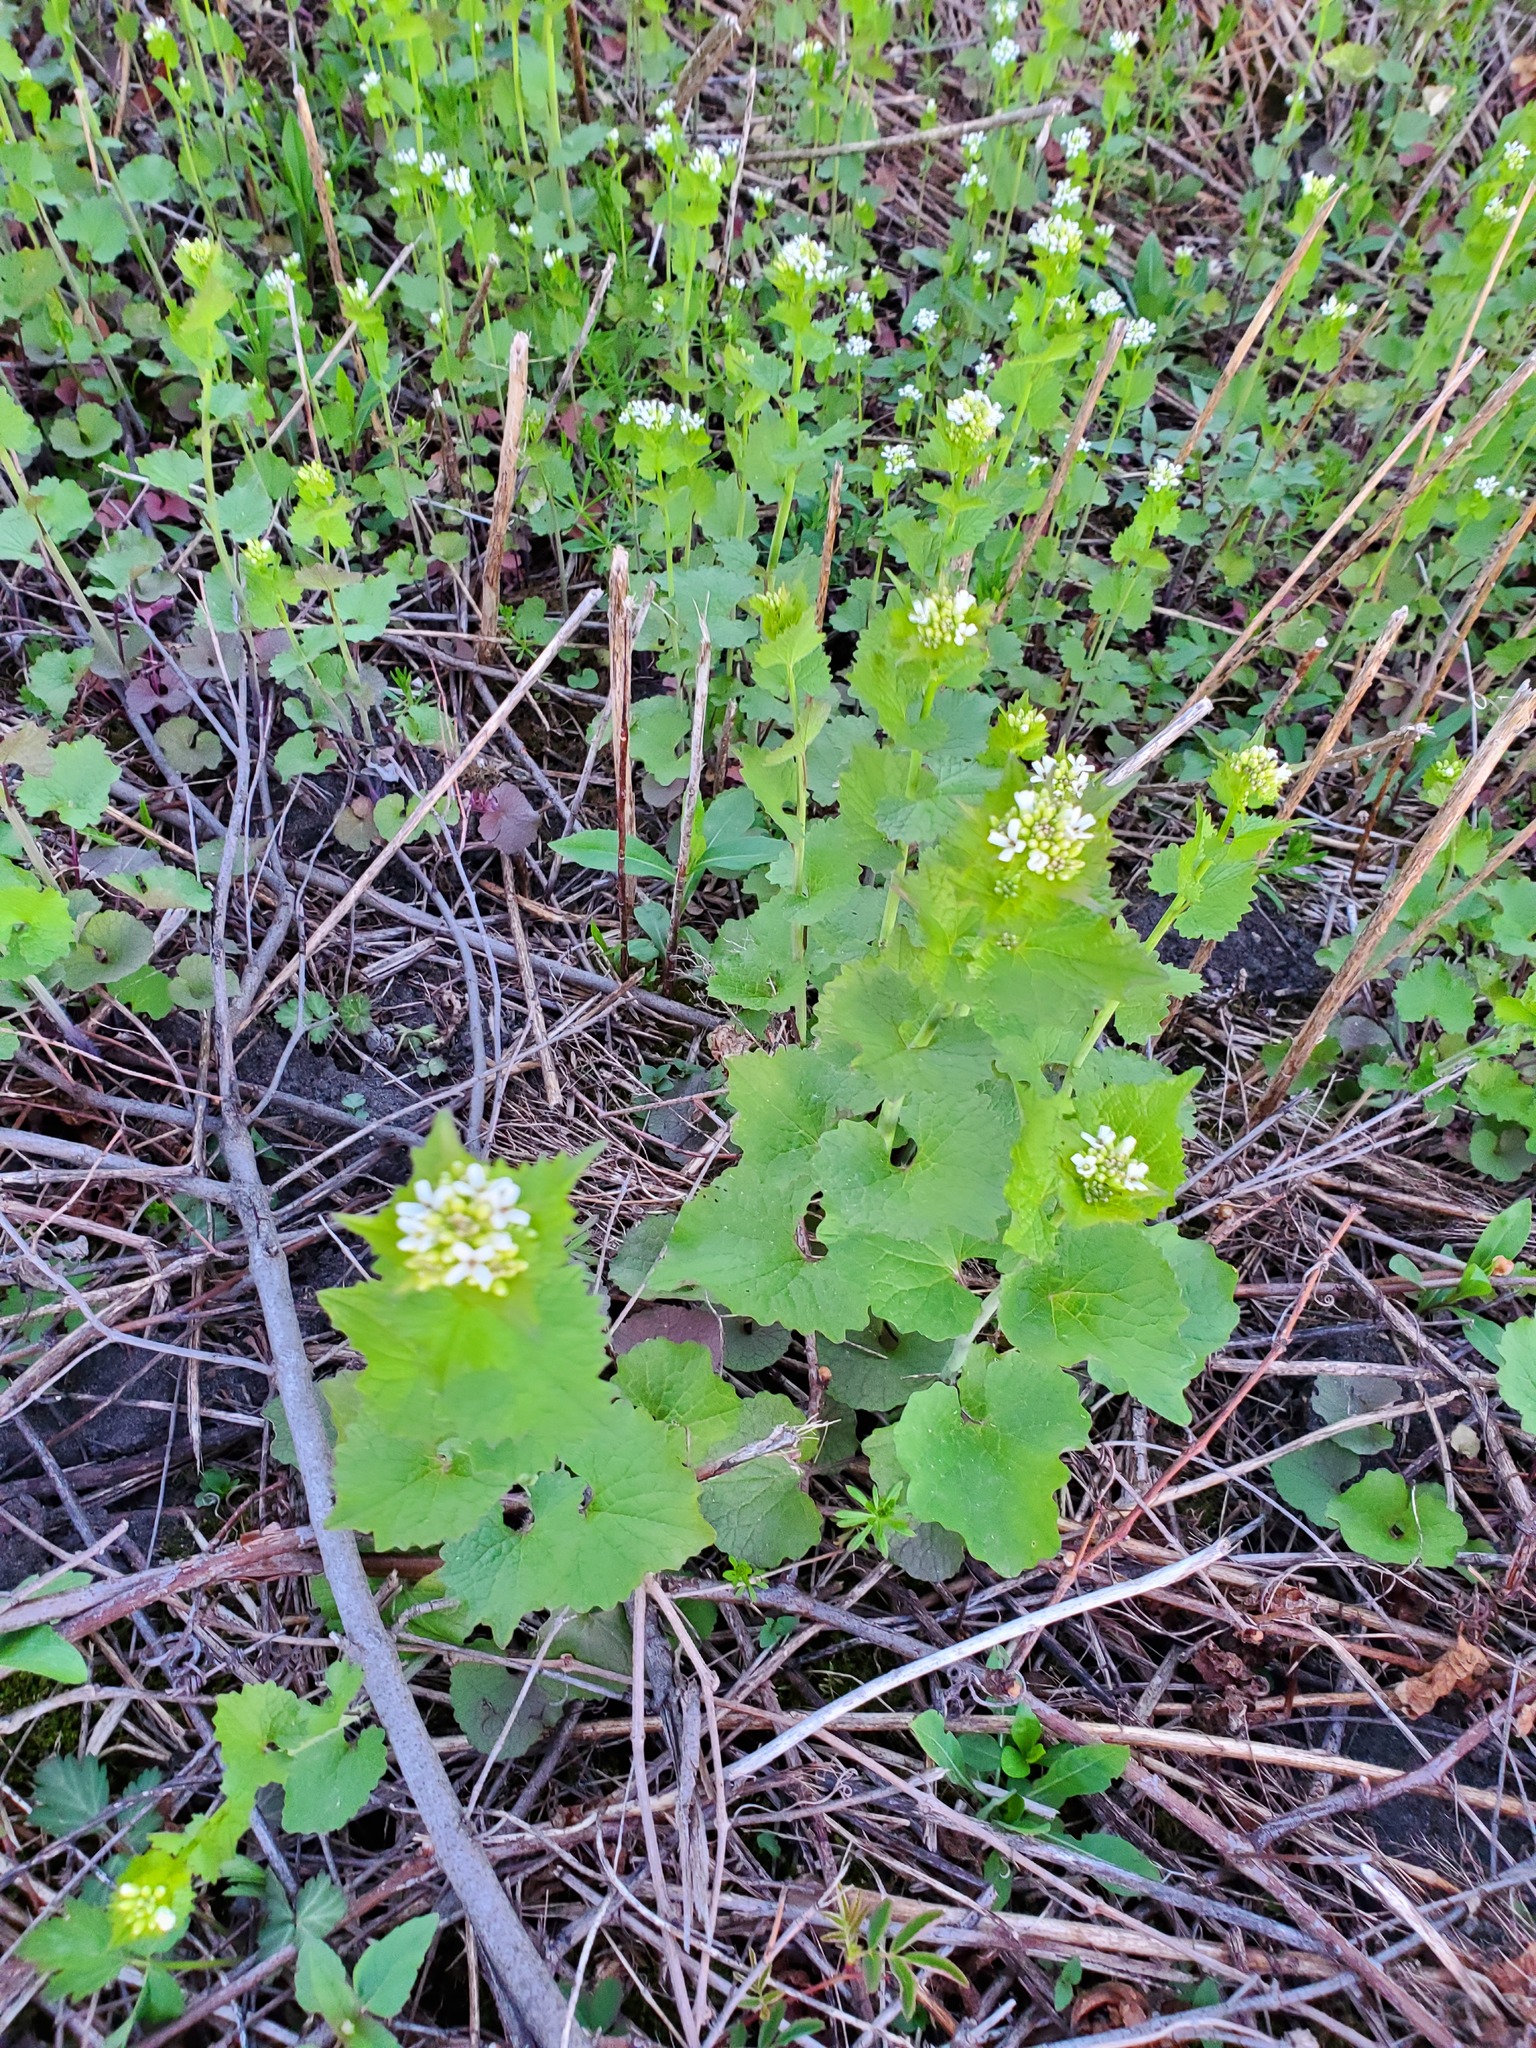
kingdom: Plantae
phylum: Tracheophyta
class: Magnoliopsida
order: Brassicales
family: Brassicaceae
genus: Alliaria
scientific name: Alliaria petiolata
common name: Garlic mustard
